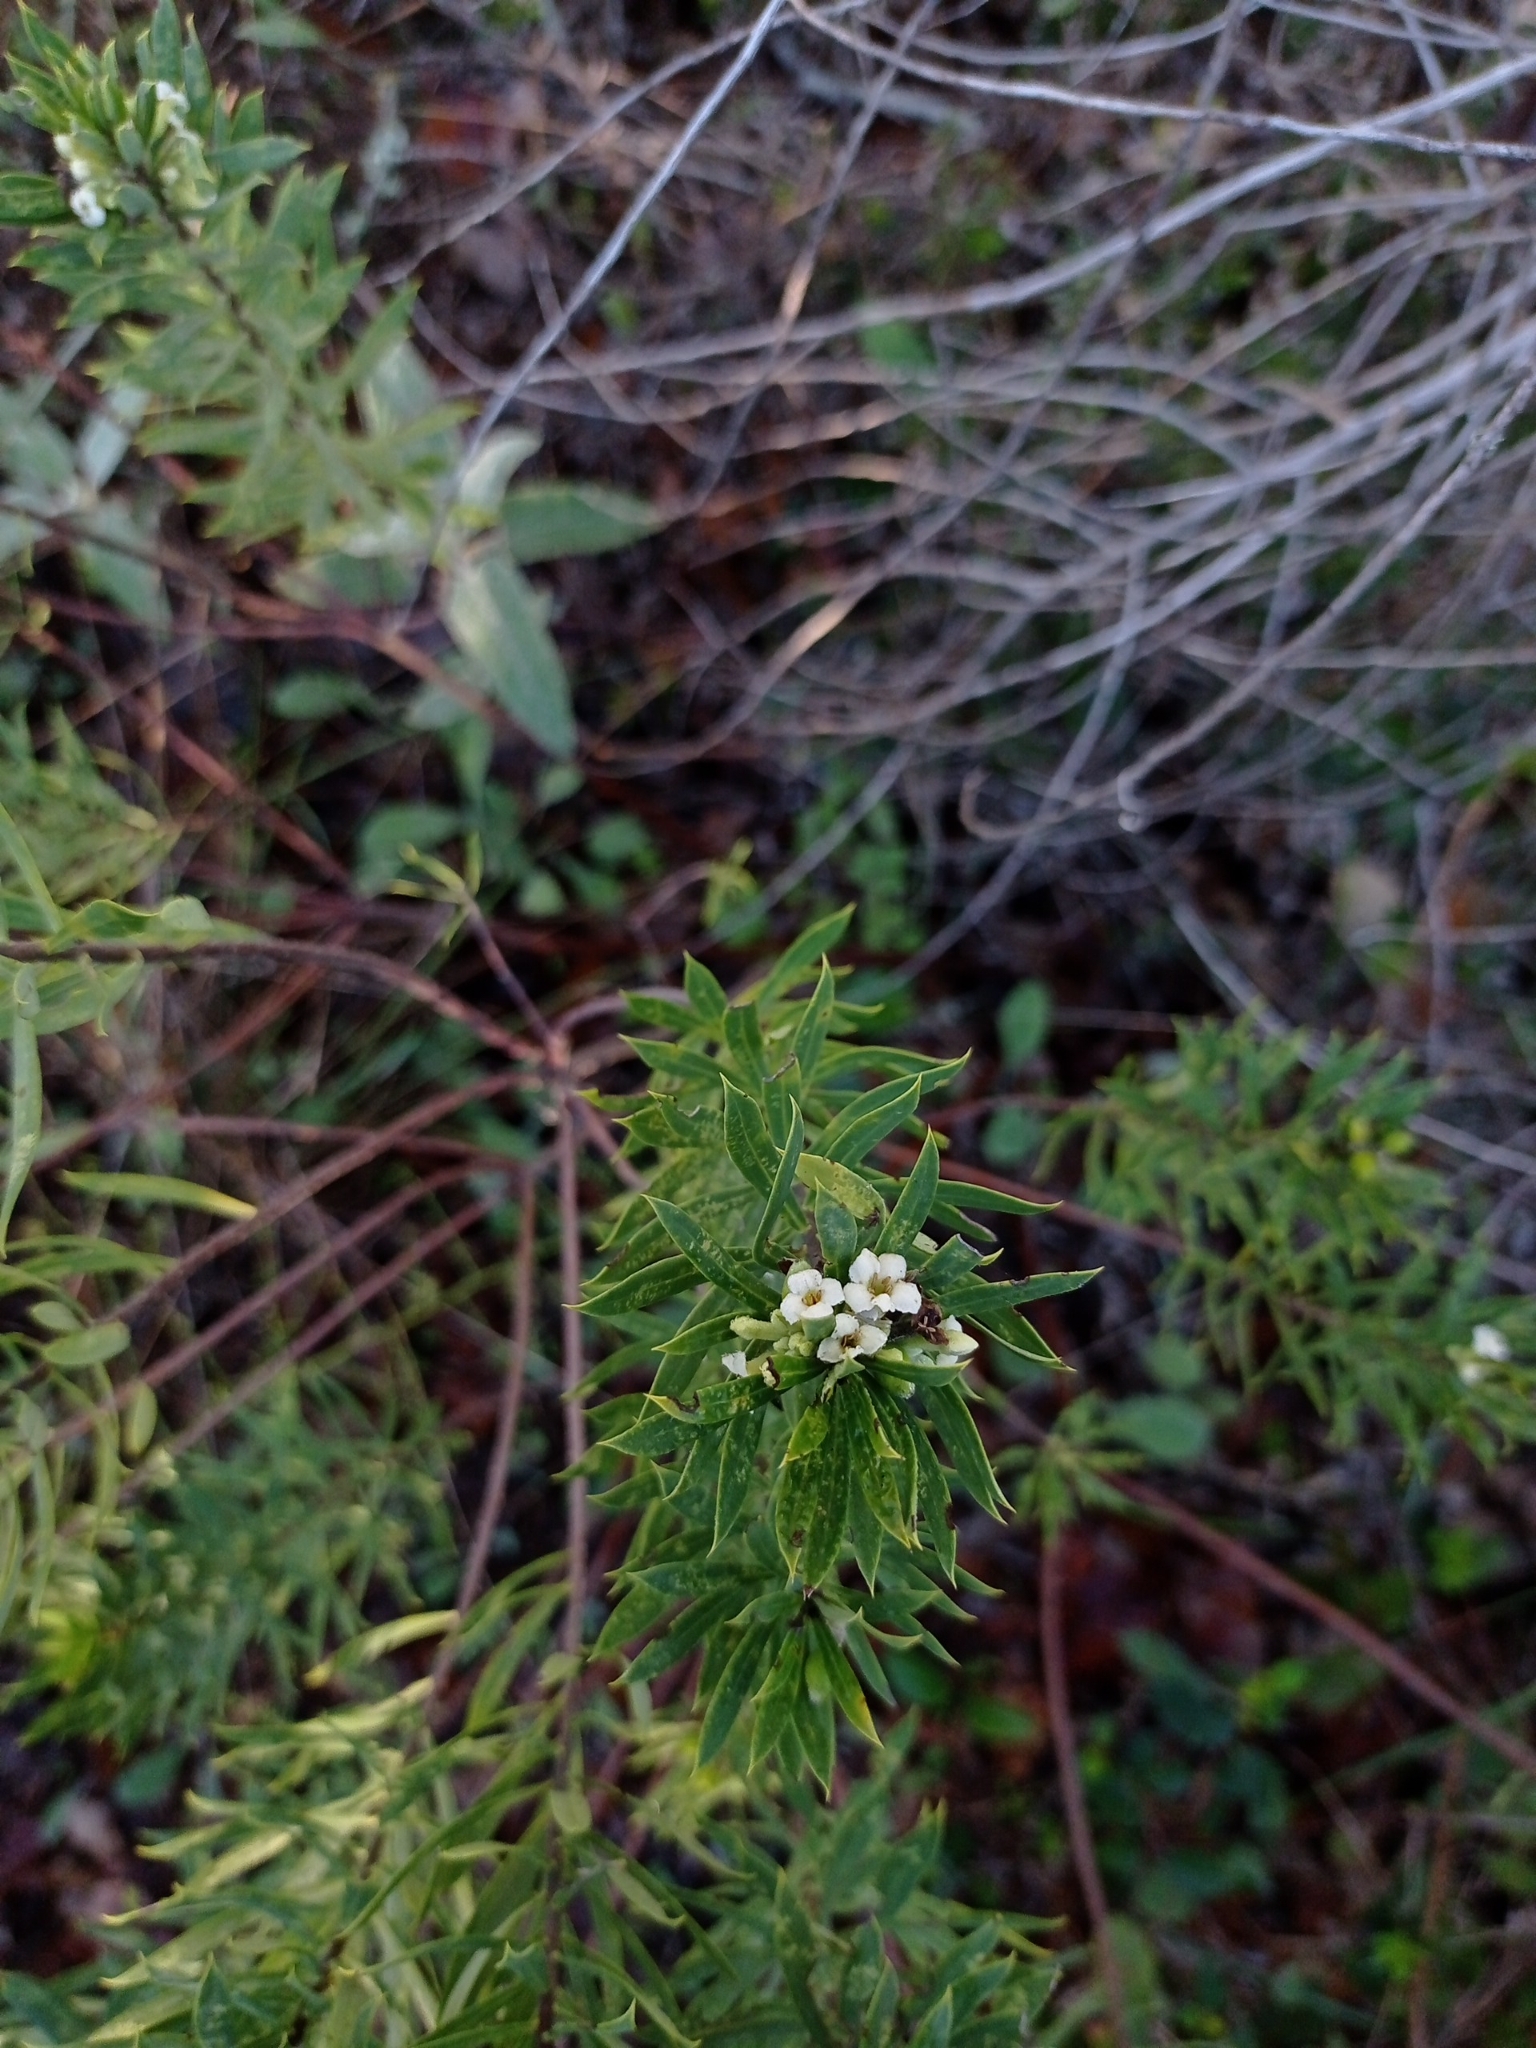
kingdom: Plantae
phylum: Tracheophyta
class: Magnoliopsida
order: Malvales
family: Thymelaeaceae
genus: Daphne
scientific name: Daphne gnidium
